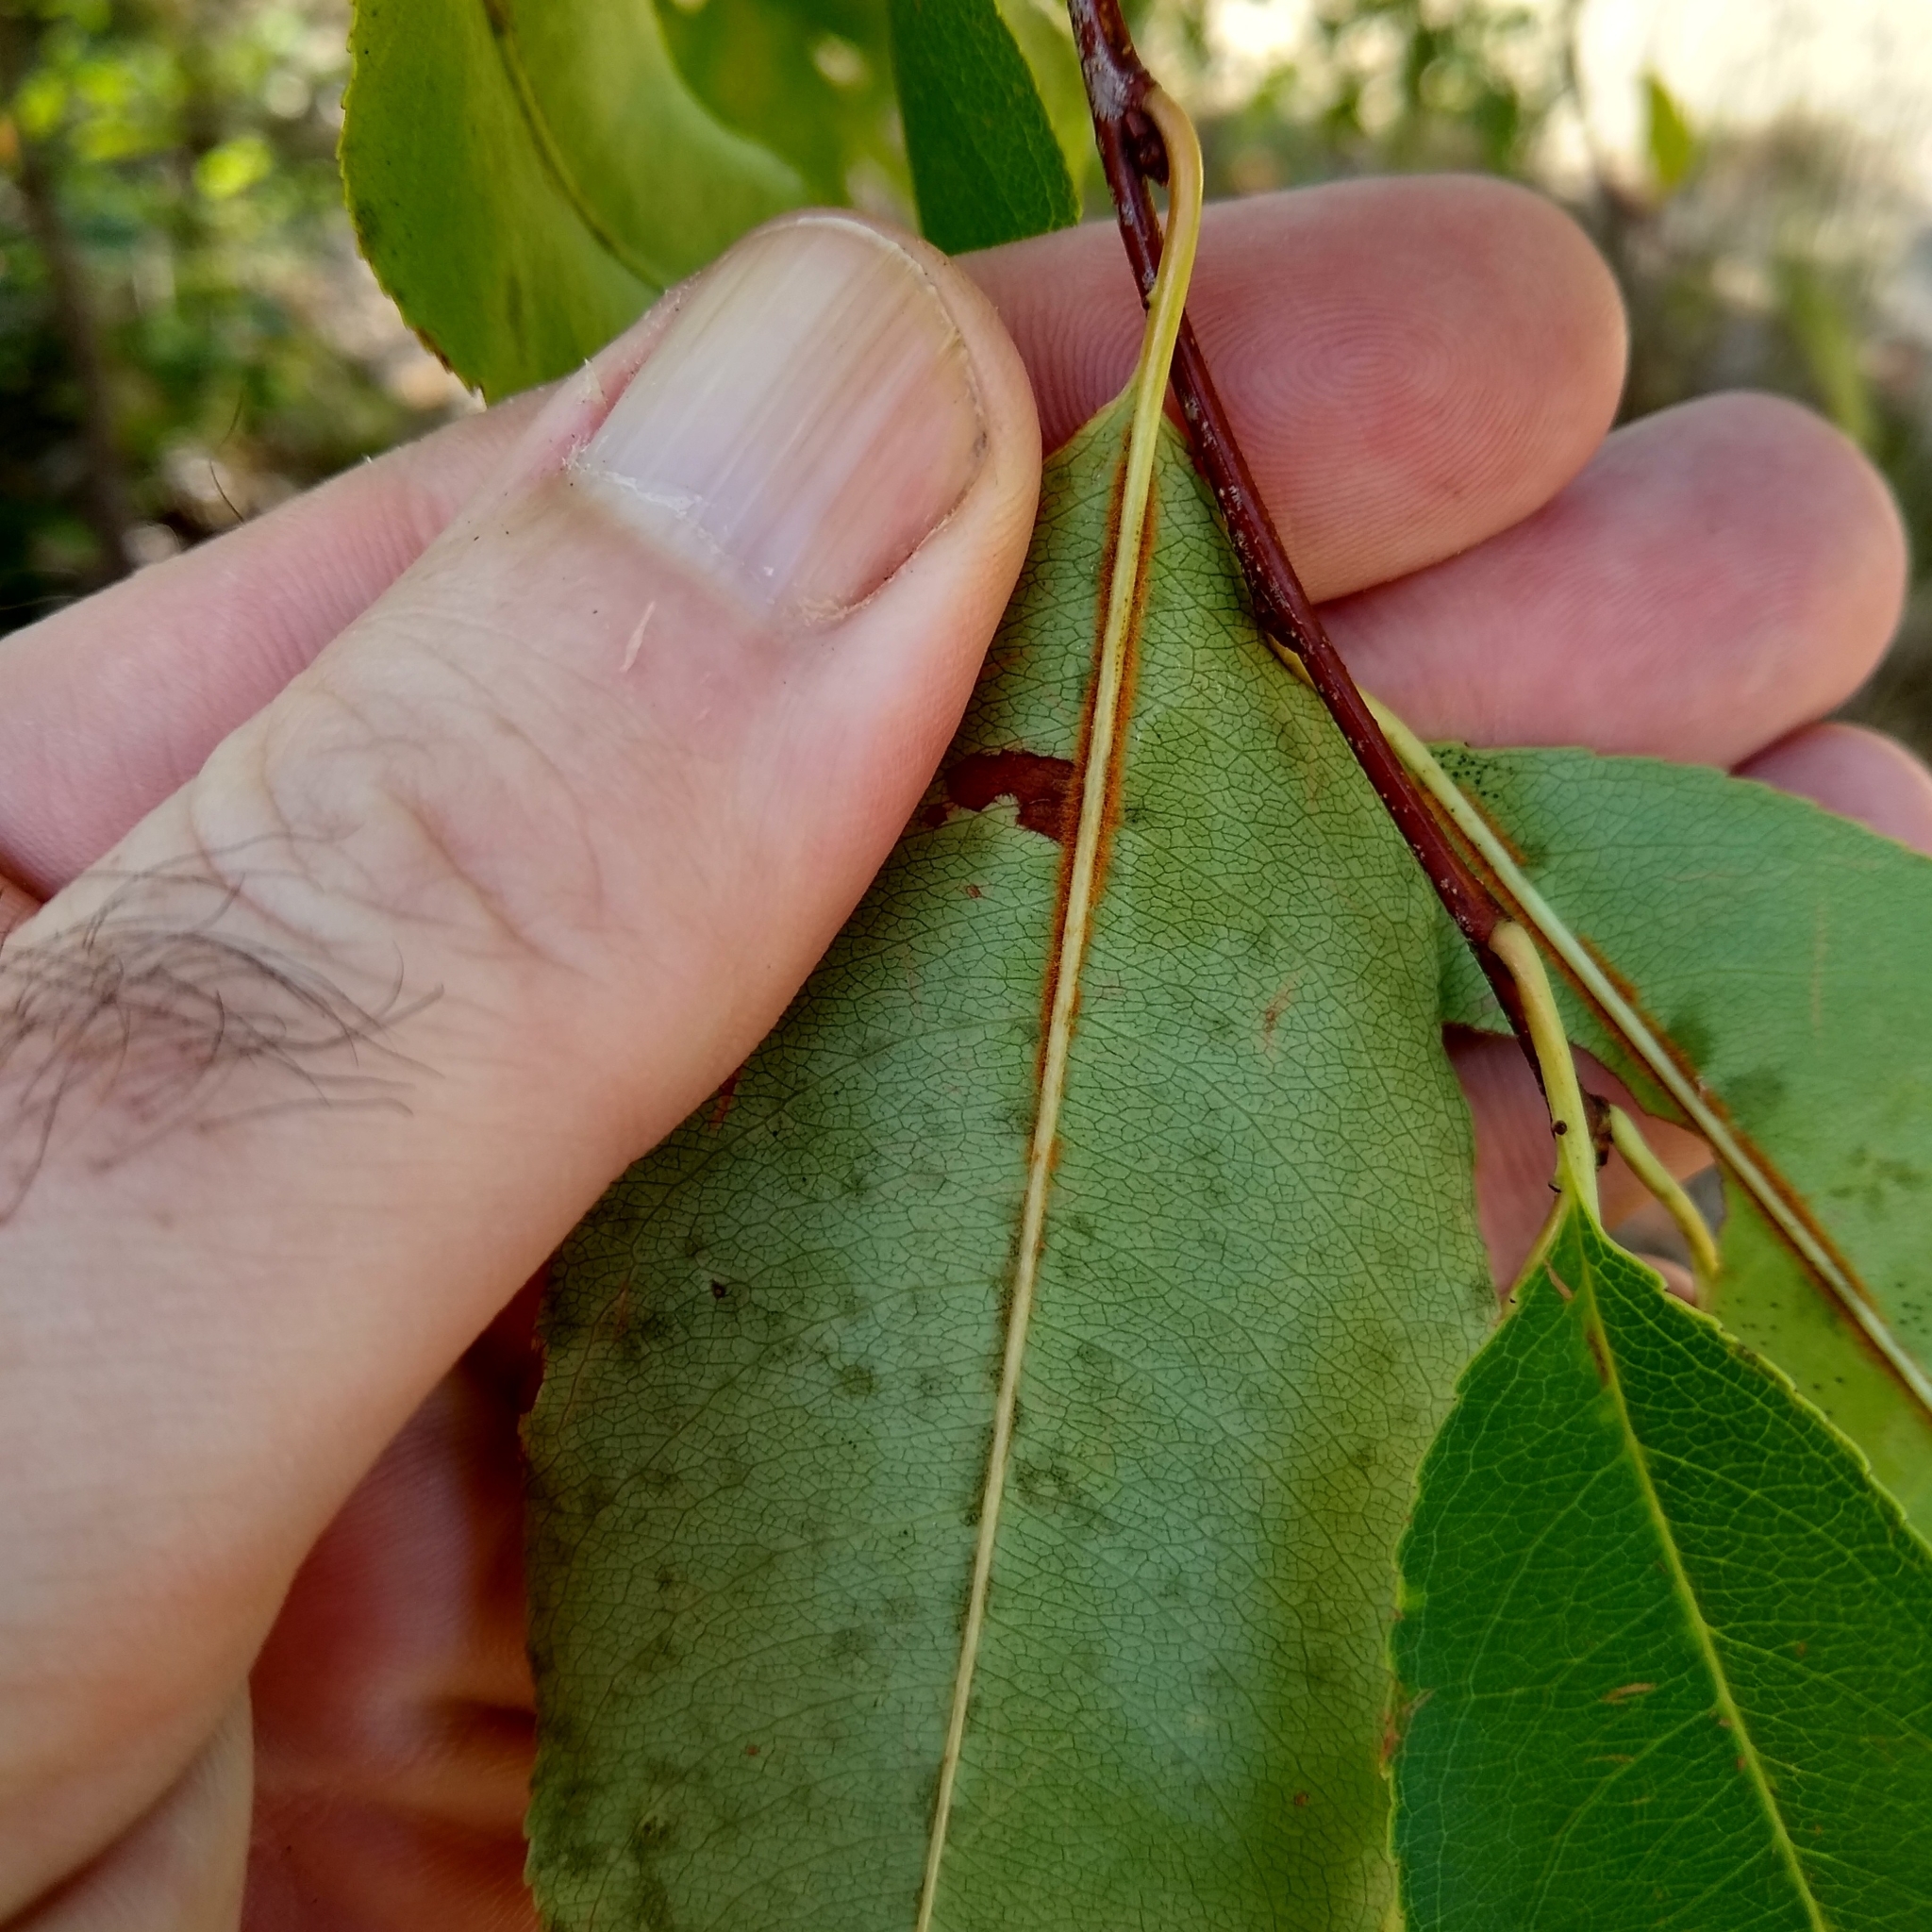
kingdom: Plantae
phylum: Tracheophyta
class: Magnoliopsida
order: Rosales
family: Rosaceae
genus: Prunus
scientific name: Prunus serotina
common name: Black cherry
